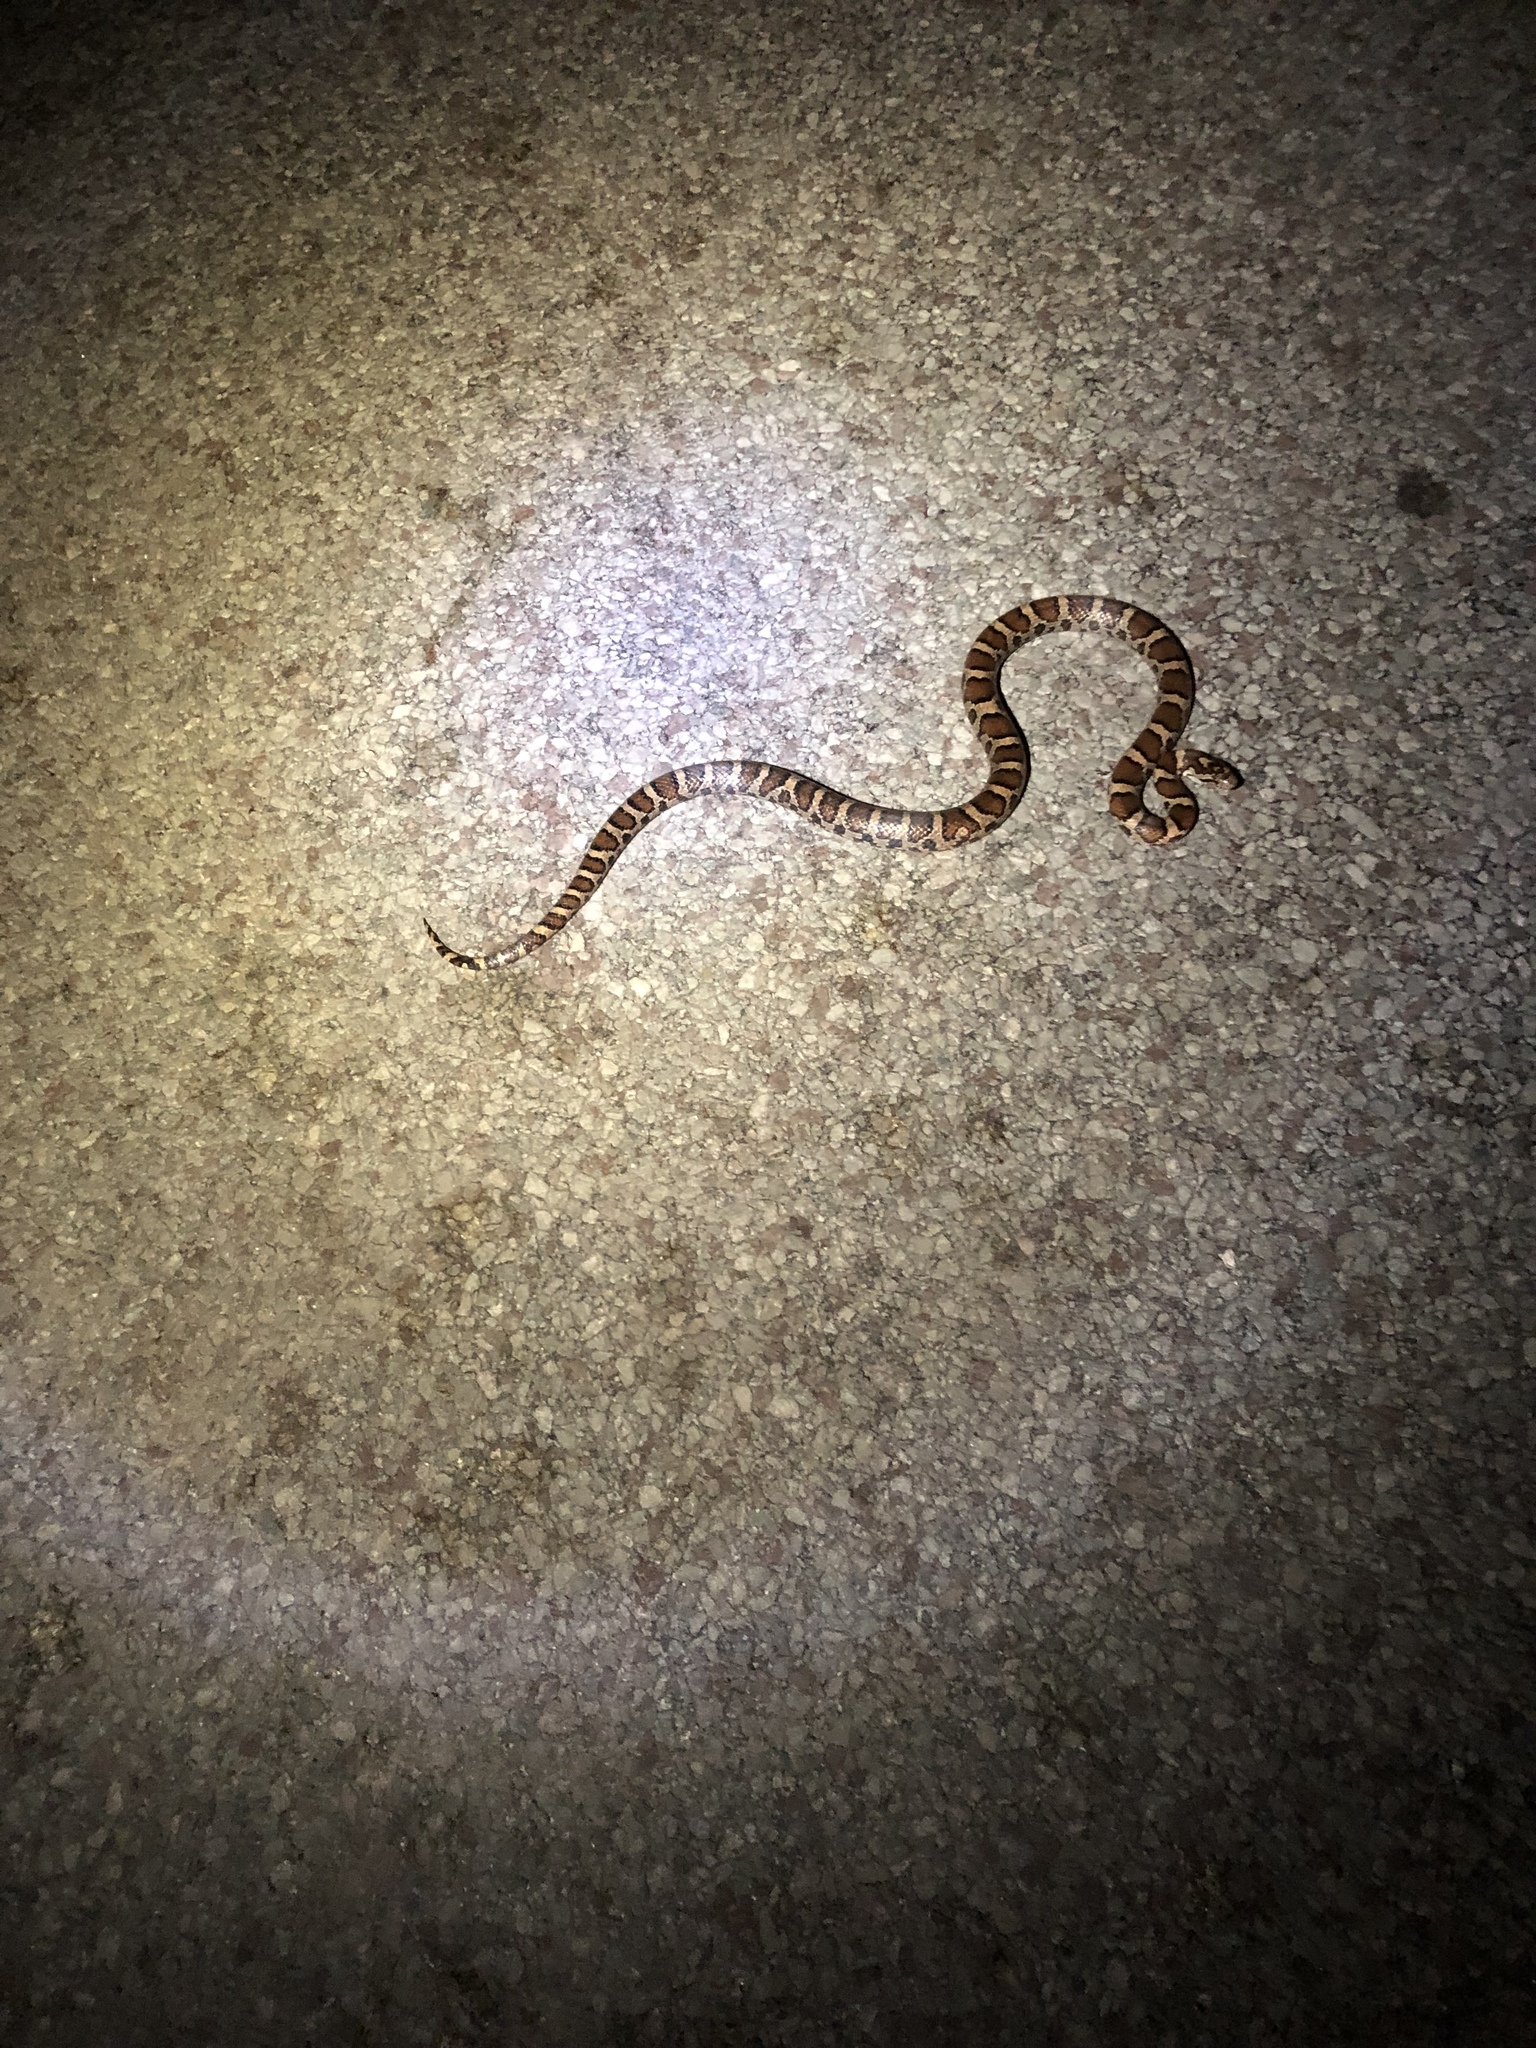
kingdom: Animalia
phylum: Chordata
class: Squamata
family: Colubridae
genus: Lampropeltis
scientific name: Lampropeltis triangulum
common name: Eastern milksnake
